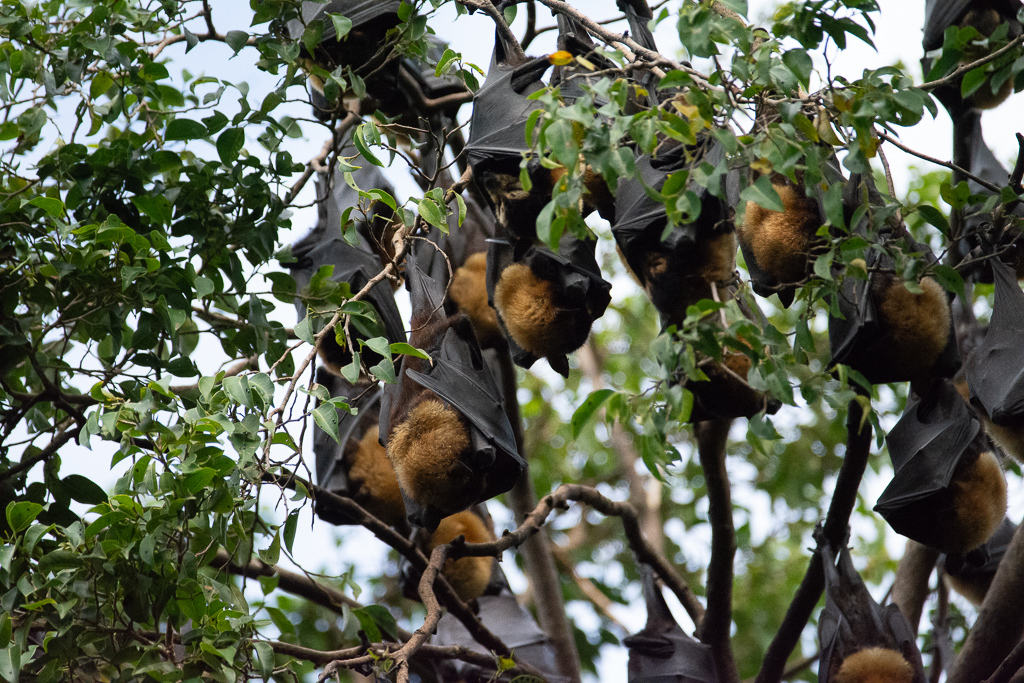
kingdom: Animalia
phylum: Chordata
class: Mammalia
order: Chiroptera
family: Pteropodidae
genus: Pteropus
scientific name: Pteropus conspicillatus
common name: Spectacled flying fox
